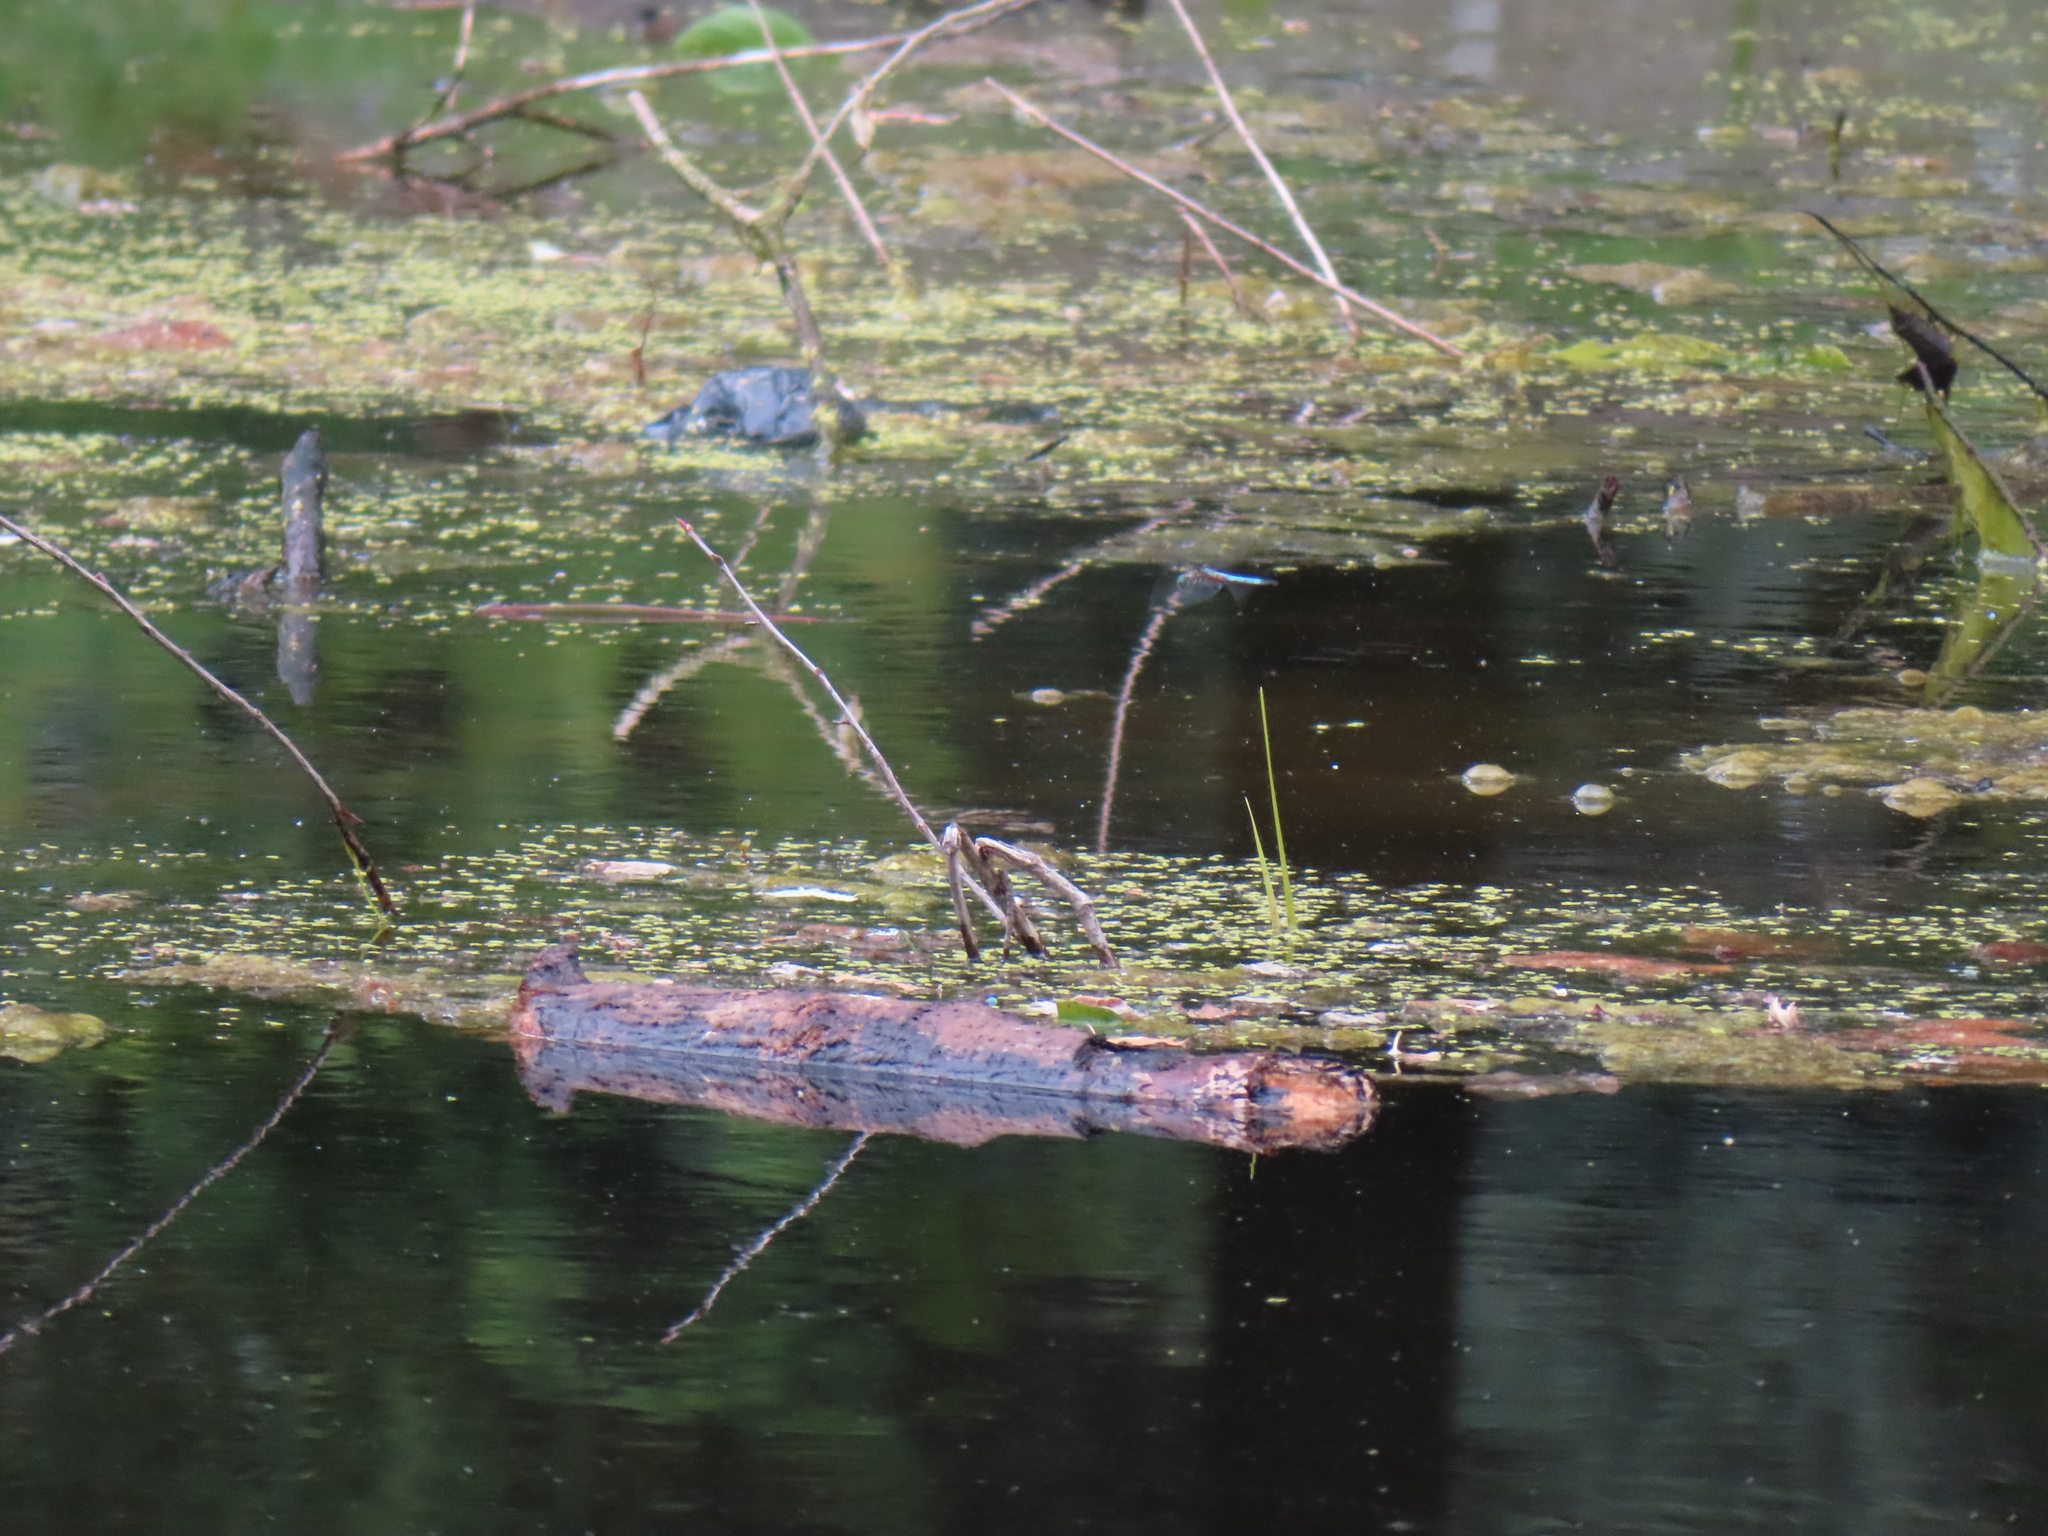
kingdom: Animalia
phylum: Arthropoda
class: Insecta
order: Odonata
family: Libellulidae
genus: Pachydiplax
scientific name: Pachydiplax longipennis
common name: Blue dasher
